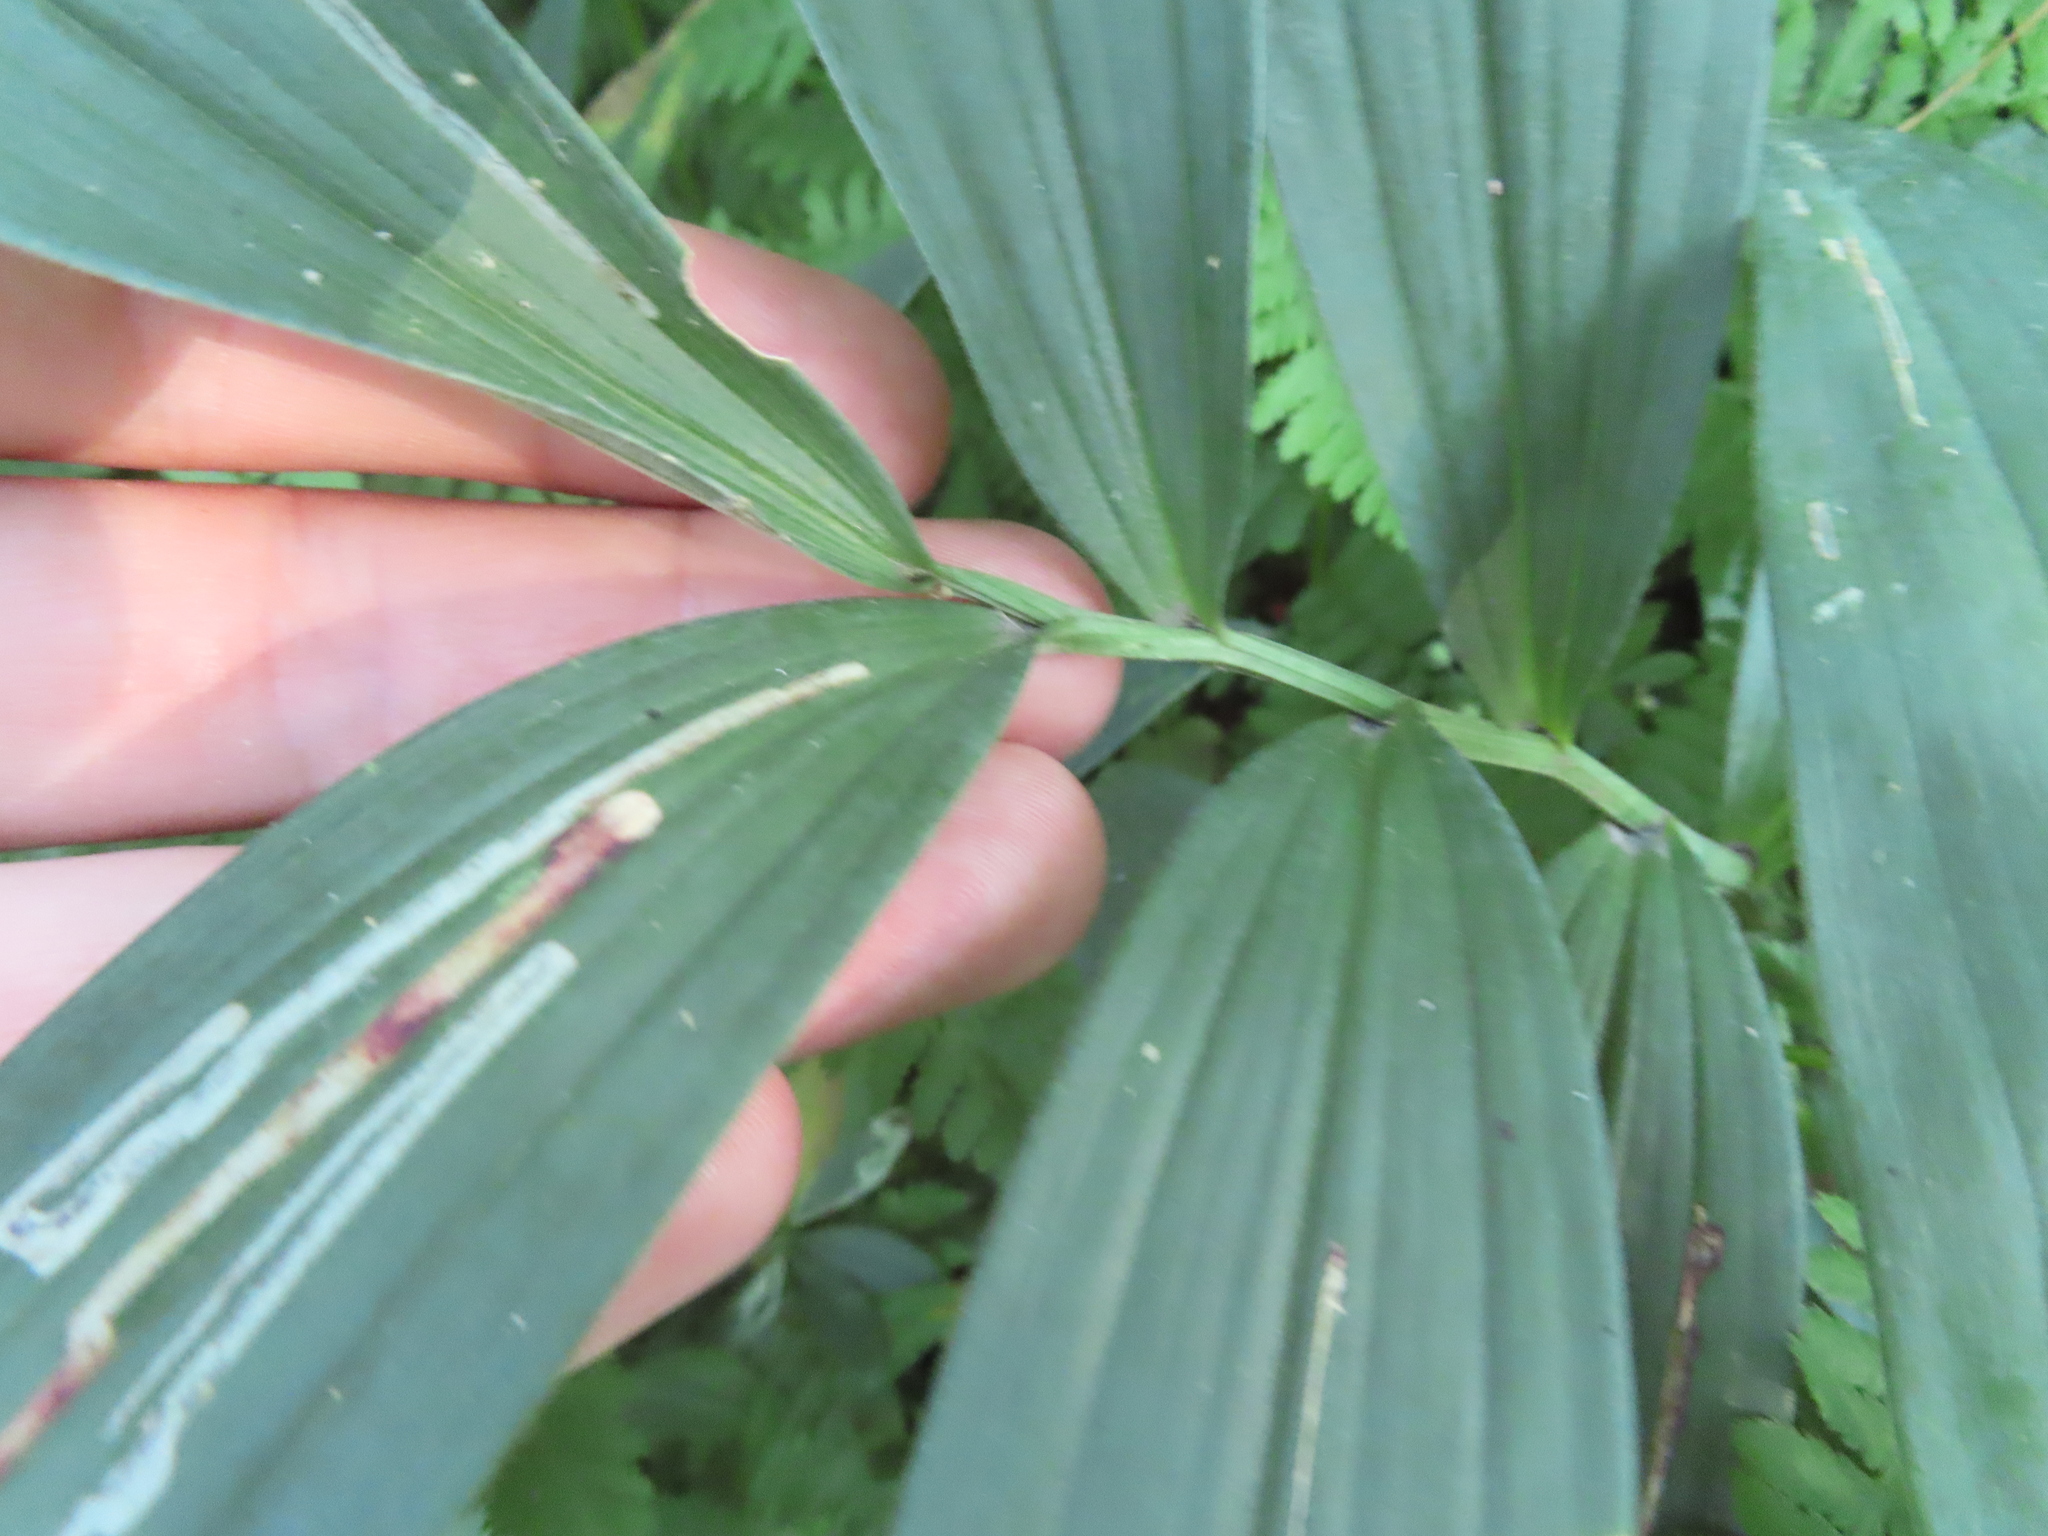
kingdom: Plantae
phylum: Tracheophyta
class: Liliopsida
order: Asparagales
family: Asparagaceae
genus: Maianthemum
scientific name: Maianthemum stellatum
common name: Little false solomon's seal
